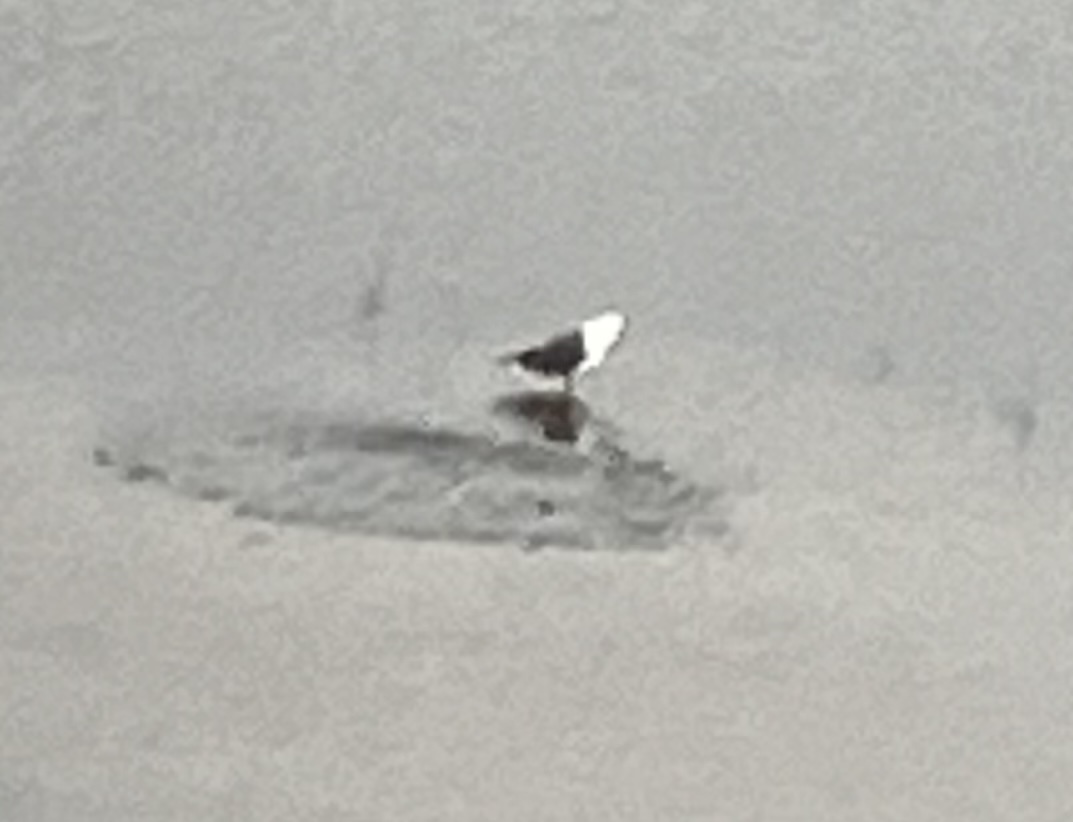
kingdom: Animalia
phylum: Chordata
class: Aves
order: Charadriiformes
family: Laridae
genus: Larus
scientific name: Larus marinus
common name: Great black-backed gull
